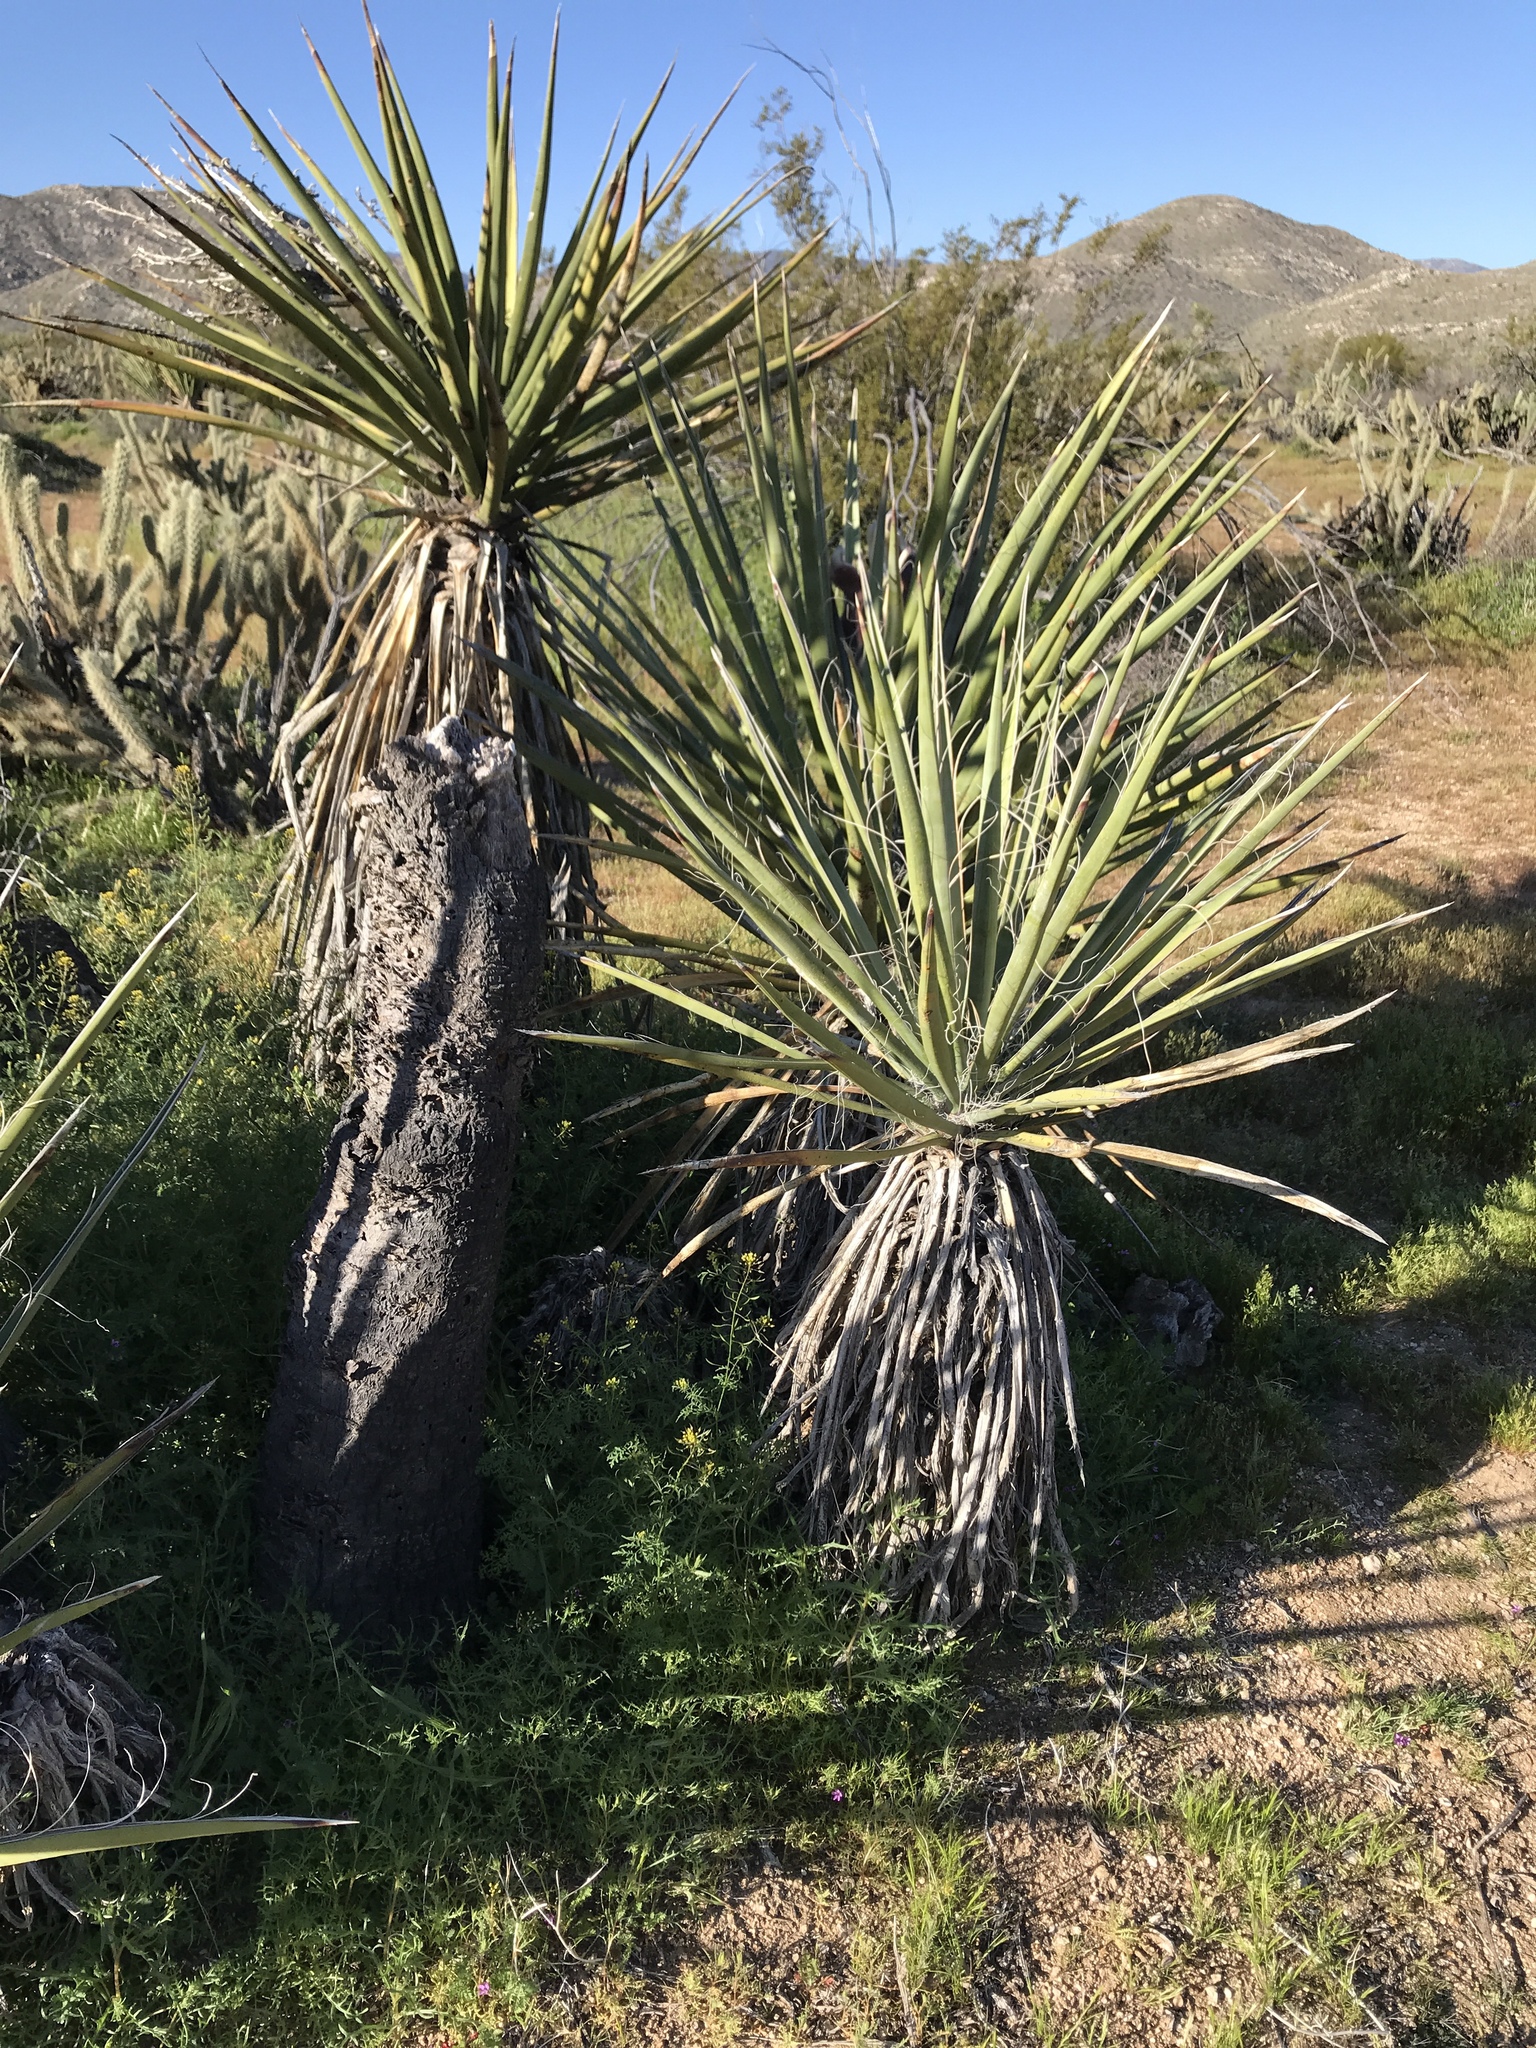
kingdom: Plantae
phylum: Tracheophyta
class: Liliopsida
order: Asparagales
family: Asparagaceae
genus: Yucca
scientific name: Yucca schidigera
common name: Mojave yucca
